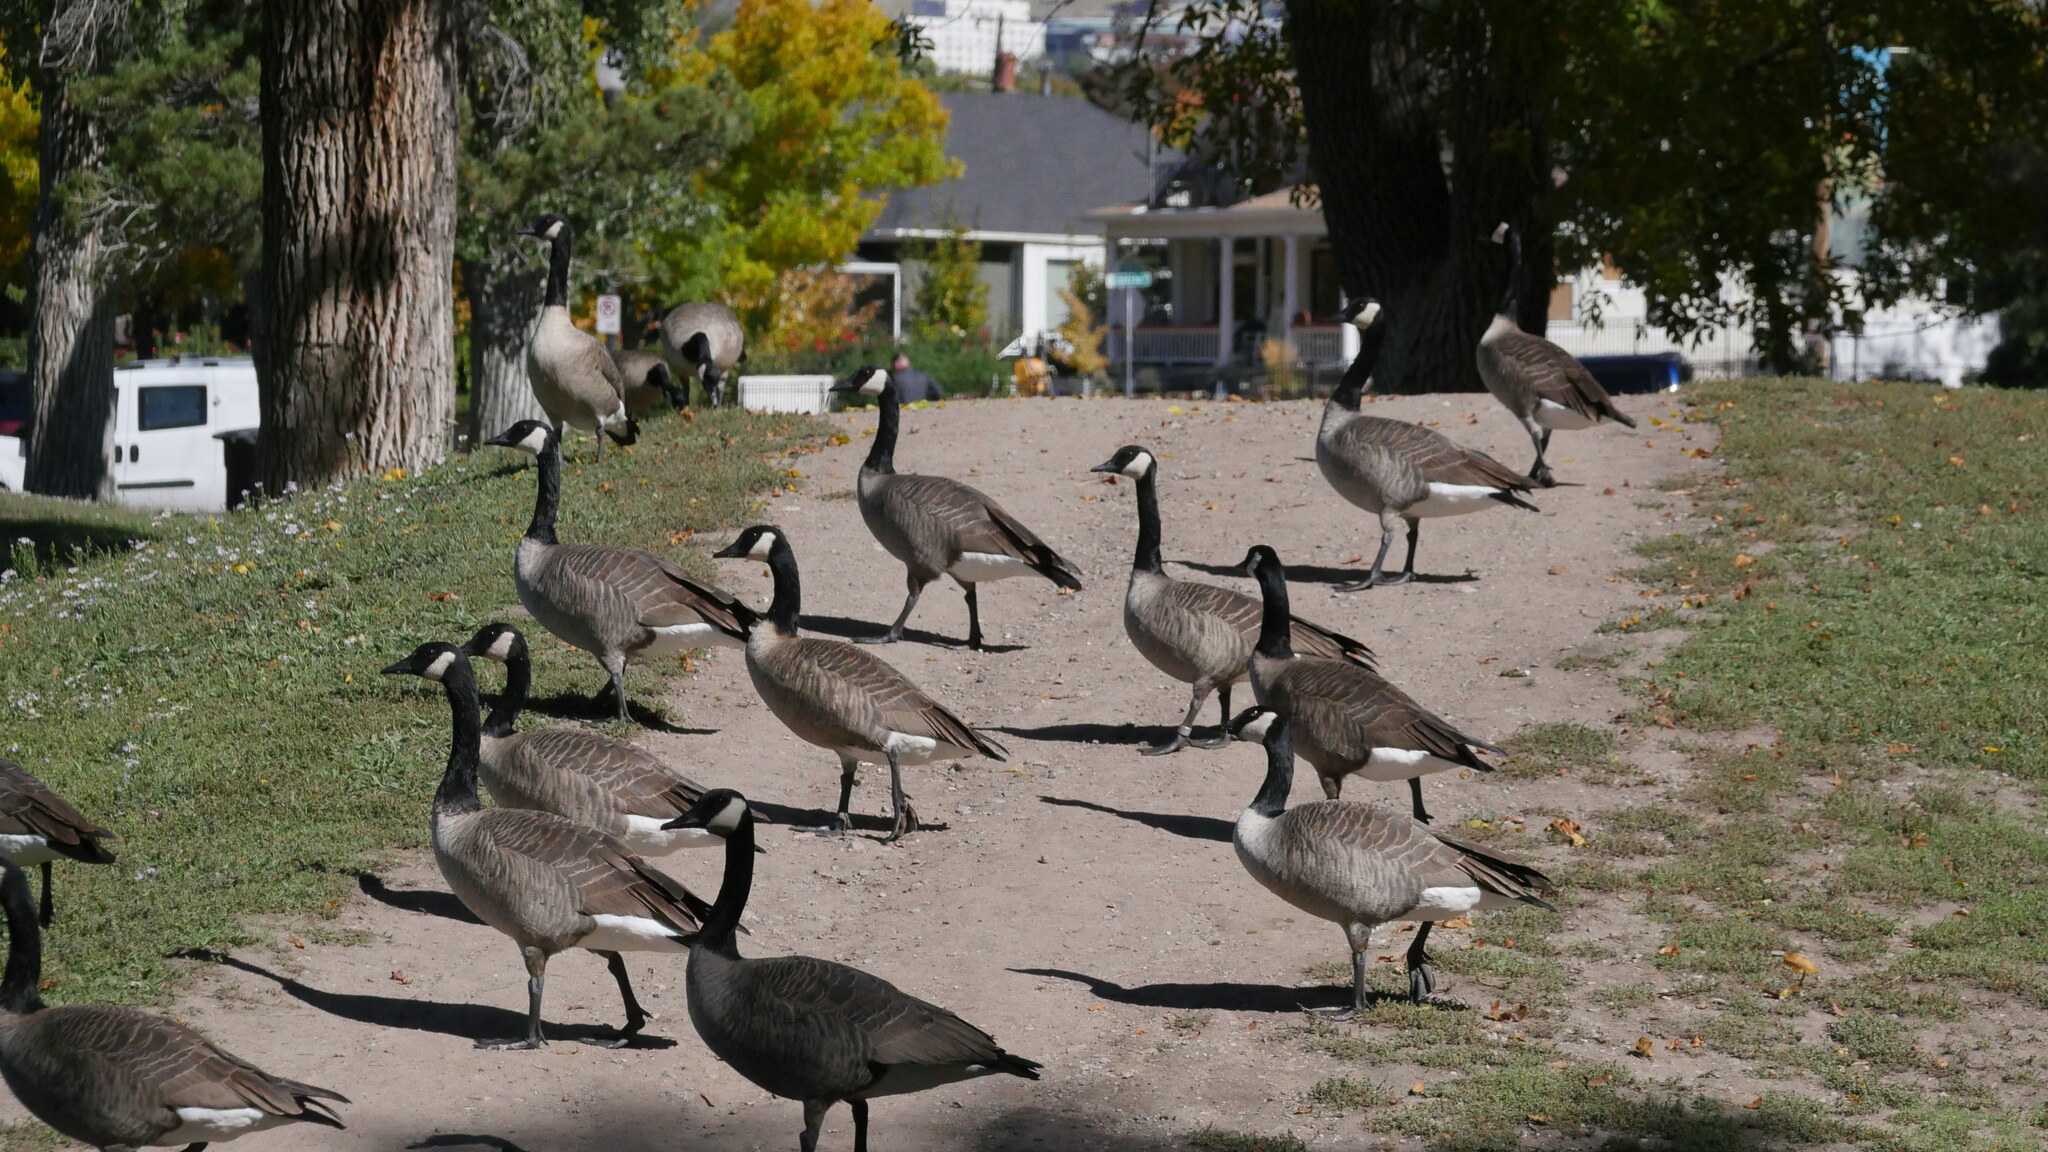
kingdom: Animalia
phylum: Chordata
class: Aves
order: Anseriformes
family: Anatidae
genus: Branta
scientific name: Branta canadensis
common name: Canada goose
